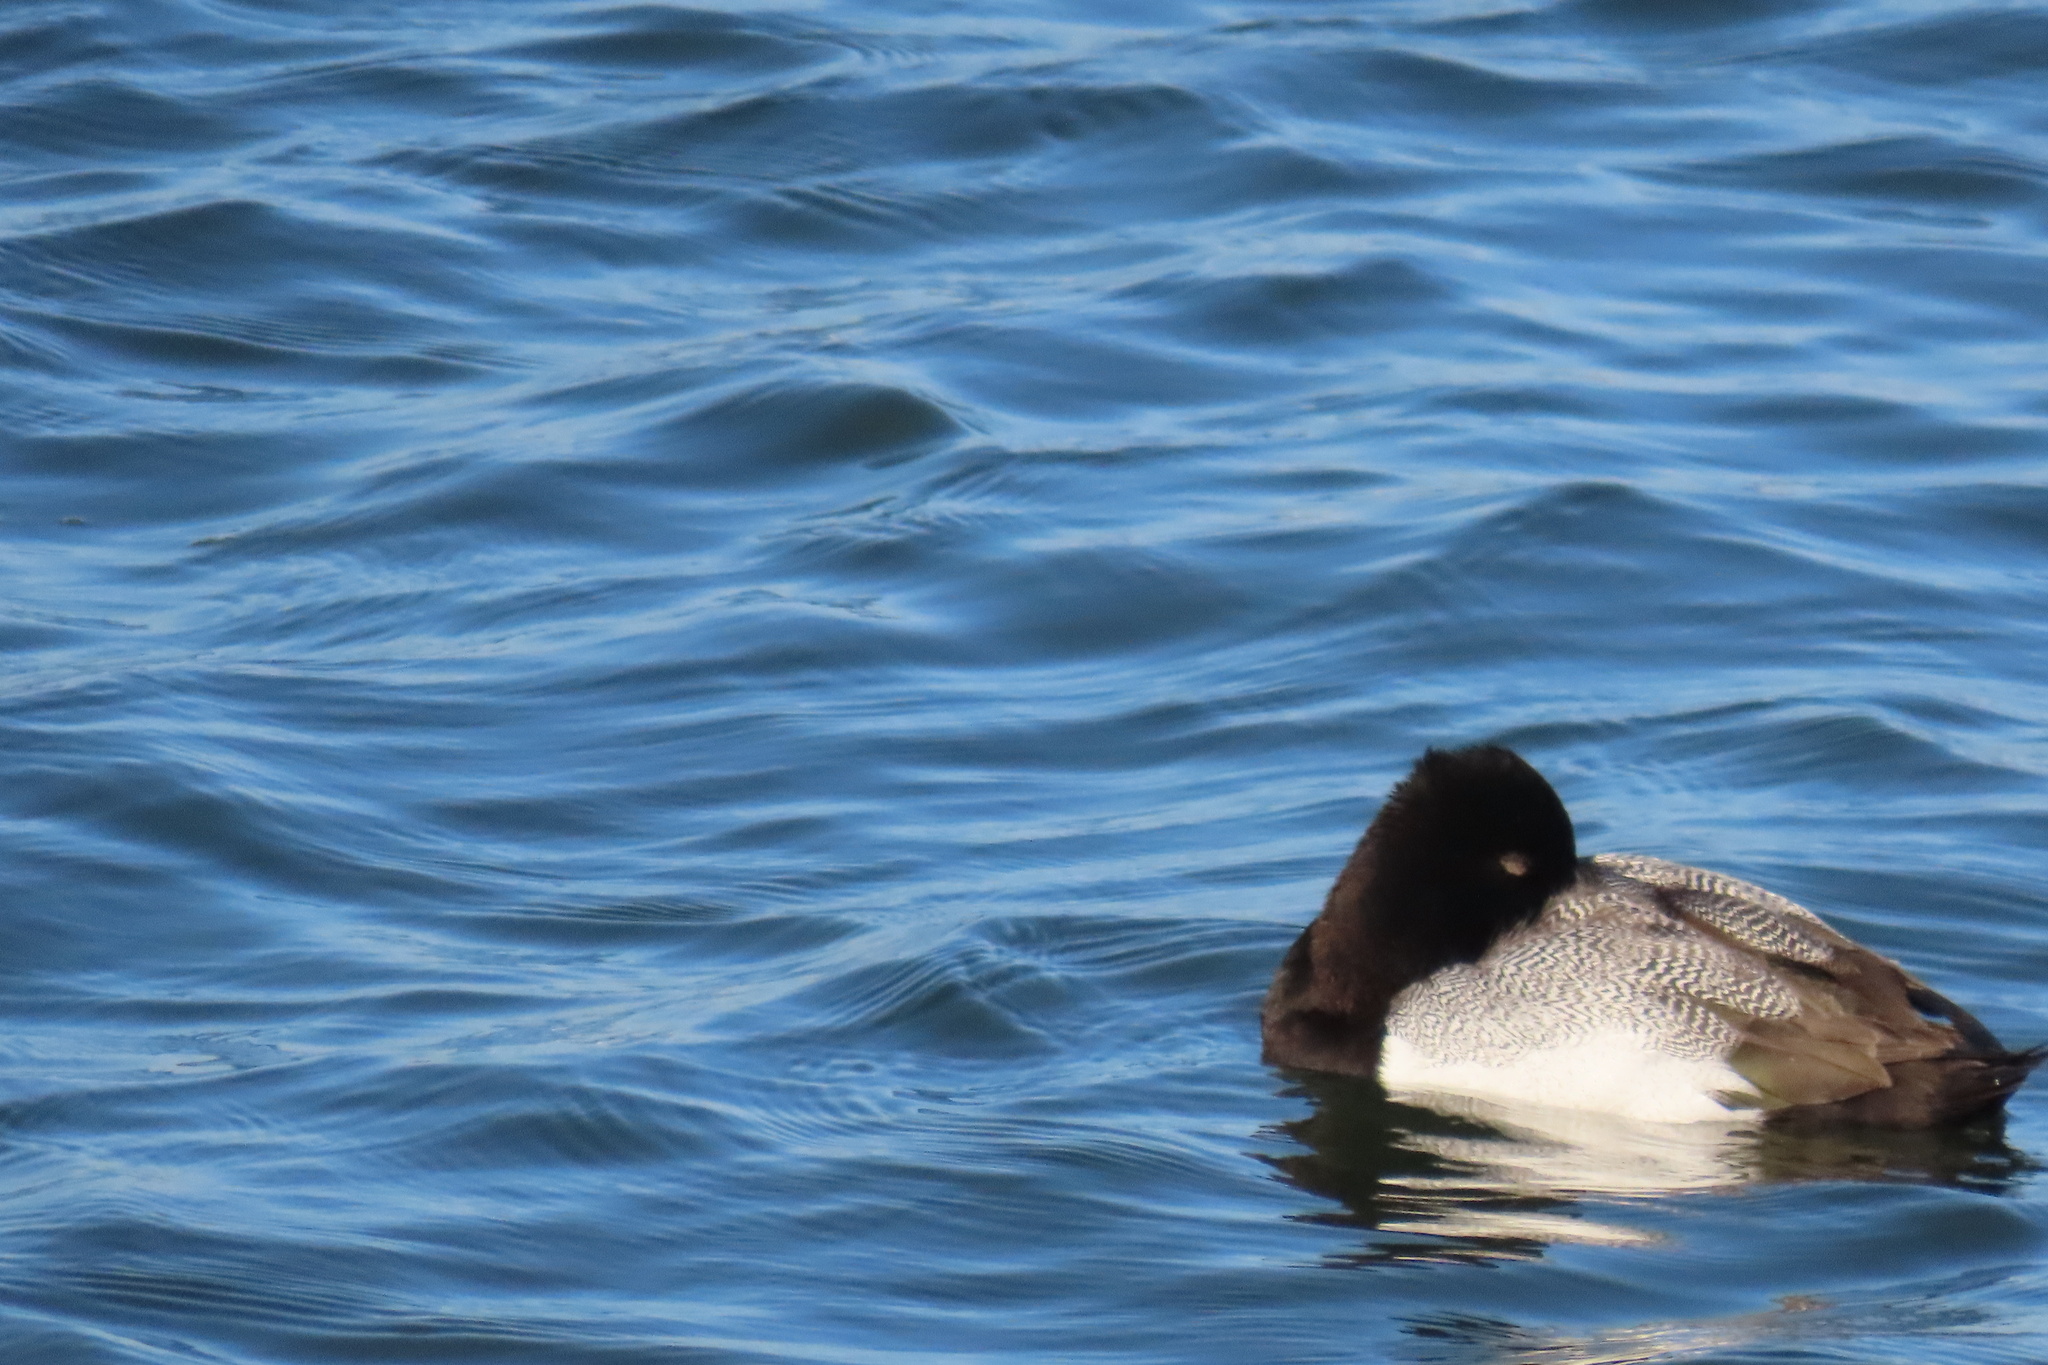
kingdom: Animalia
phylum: Chordata
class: Aves
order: Anseriformes
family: Anatidae
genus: Aythya
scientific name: Aythya affinis
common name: Lesser scaup
